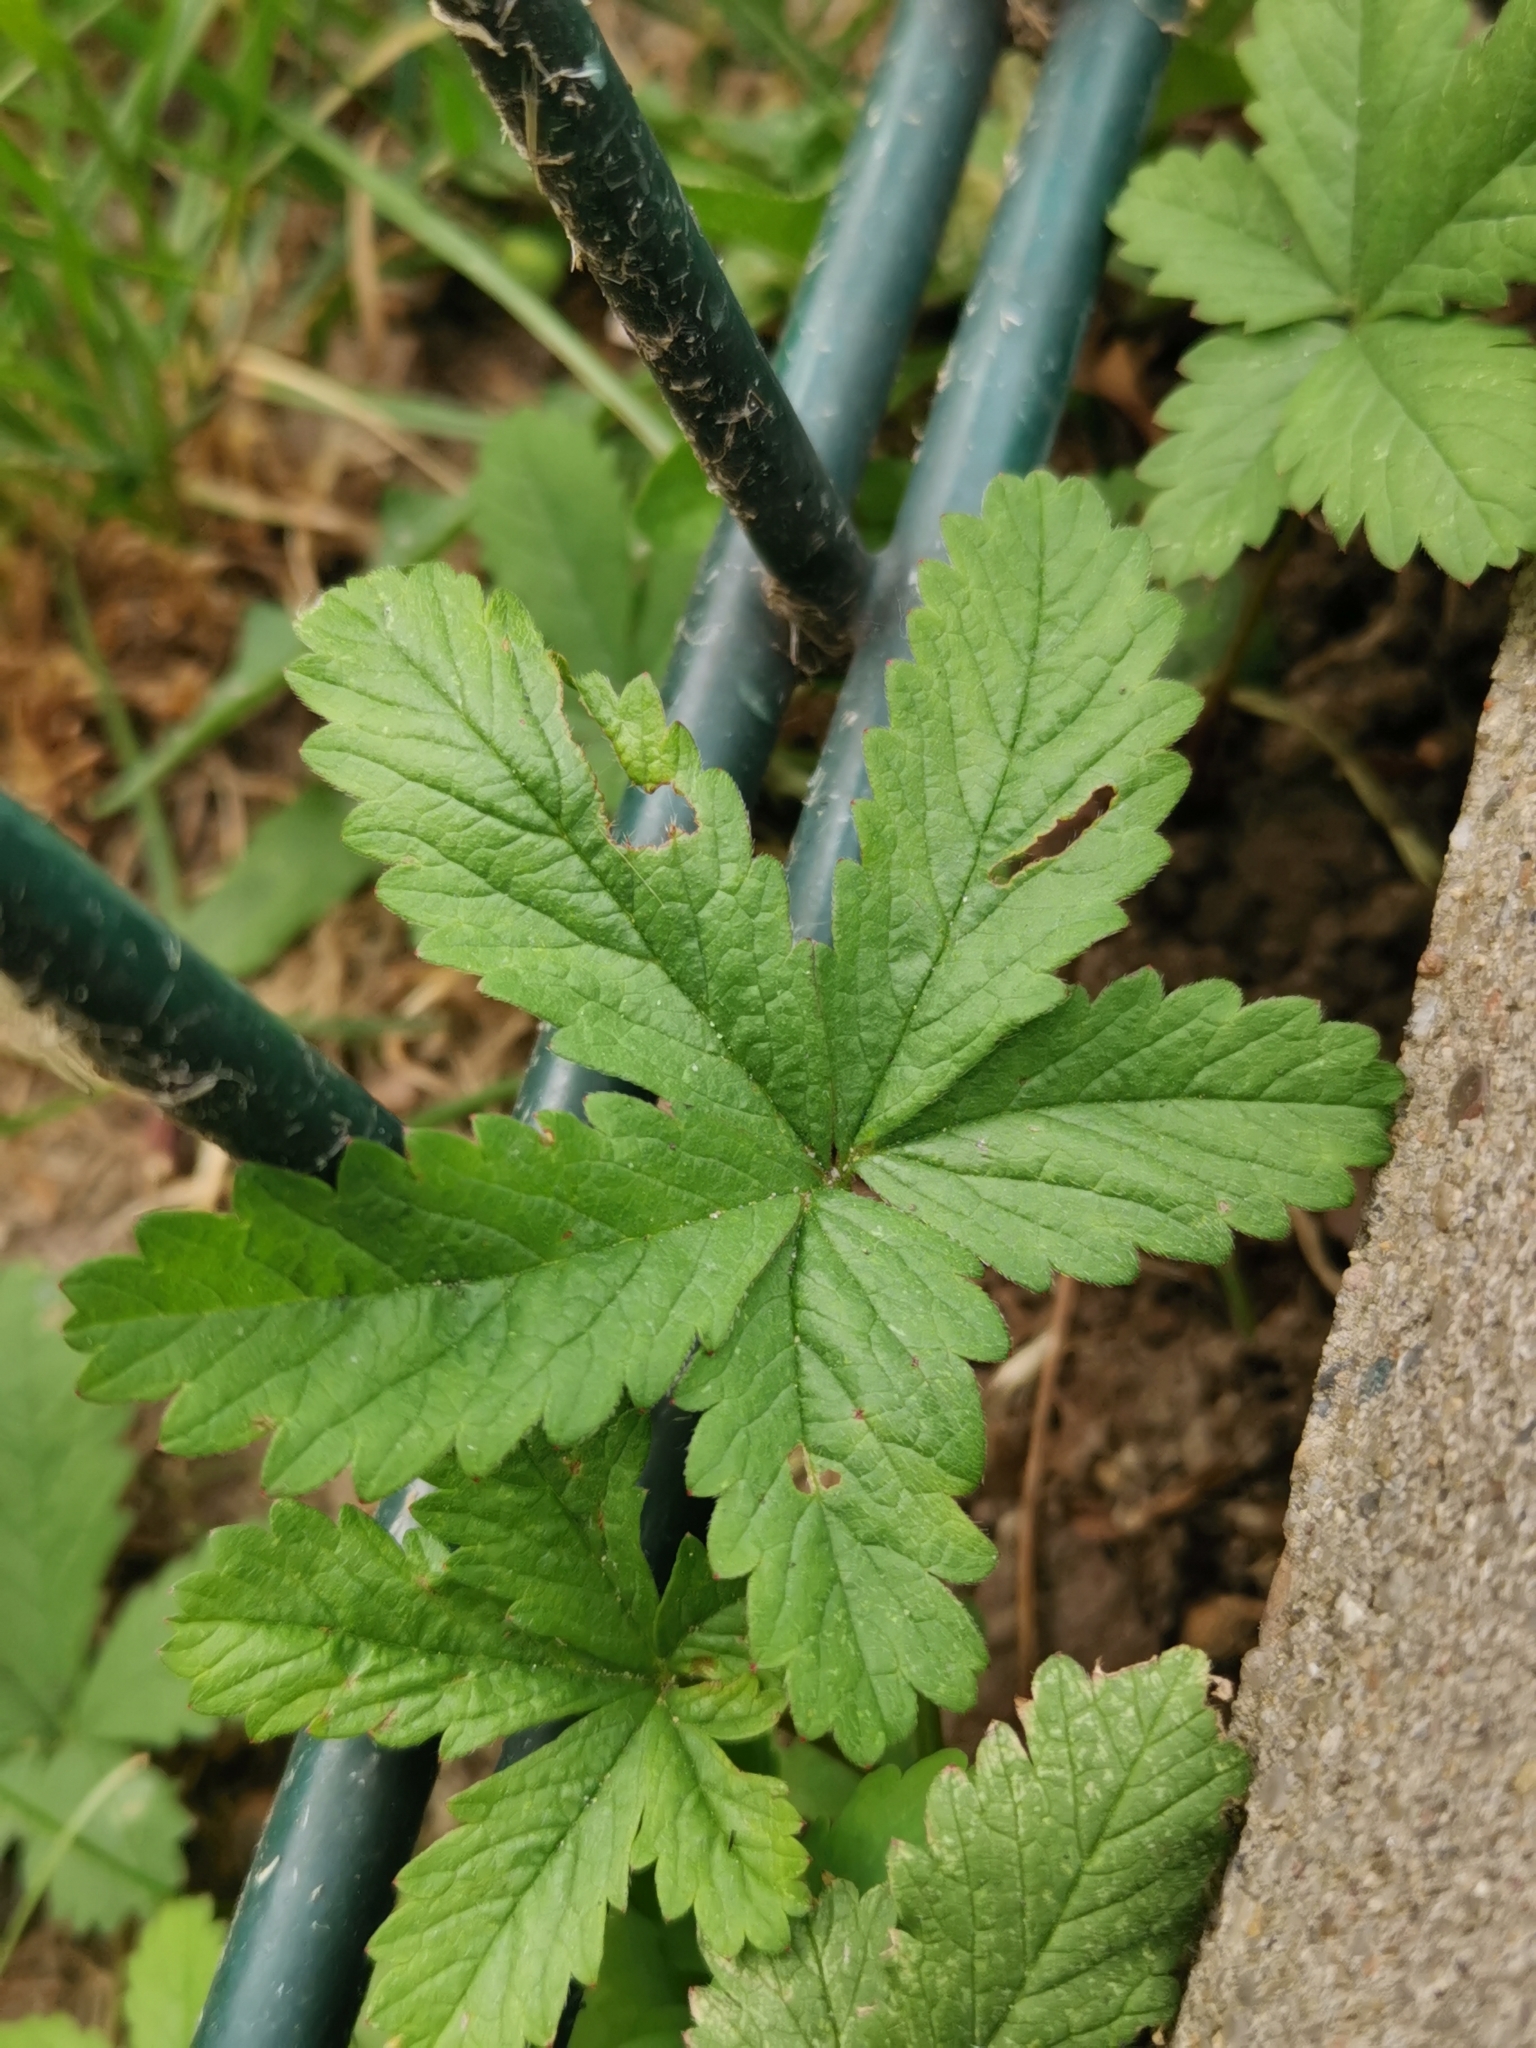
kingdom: Plantae
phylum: Tracheophyta
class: Magnoliopsida
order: Rosales
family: Rosaceae
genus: Potentilla
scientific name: Potentilla reptans
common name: Creeping cinquefoil
